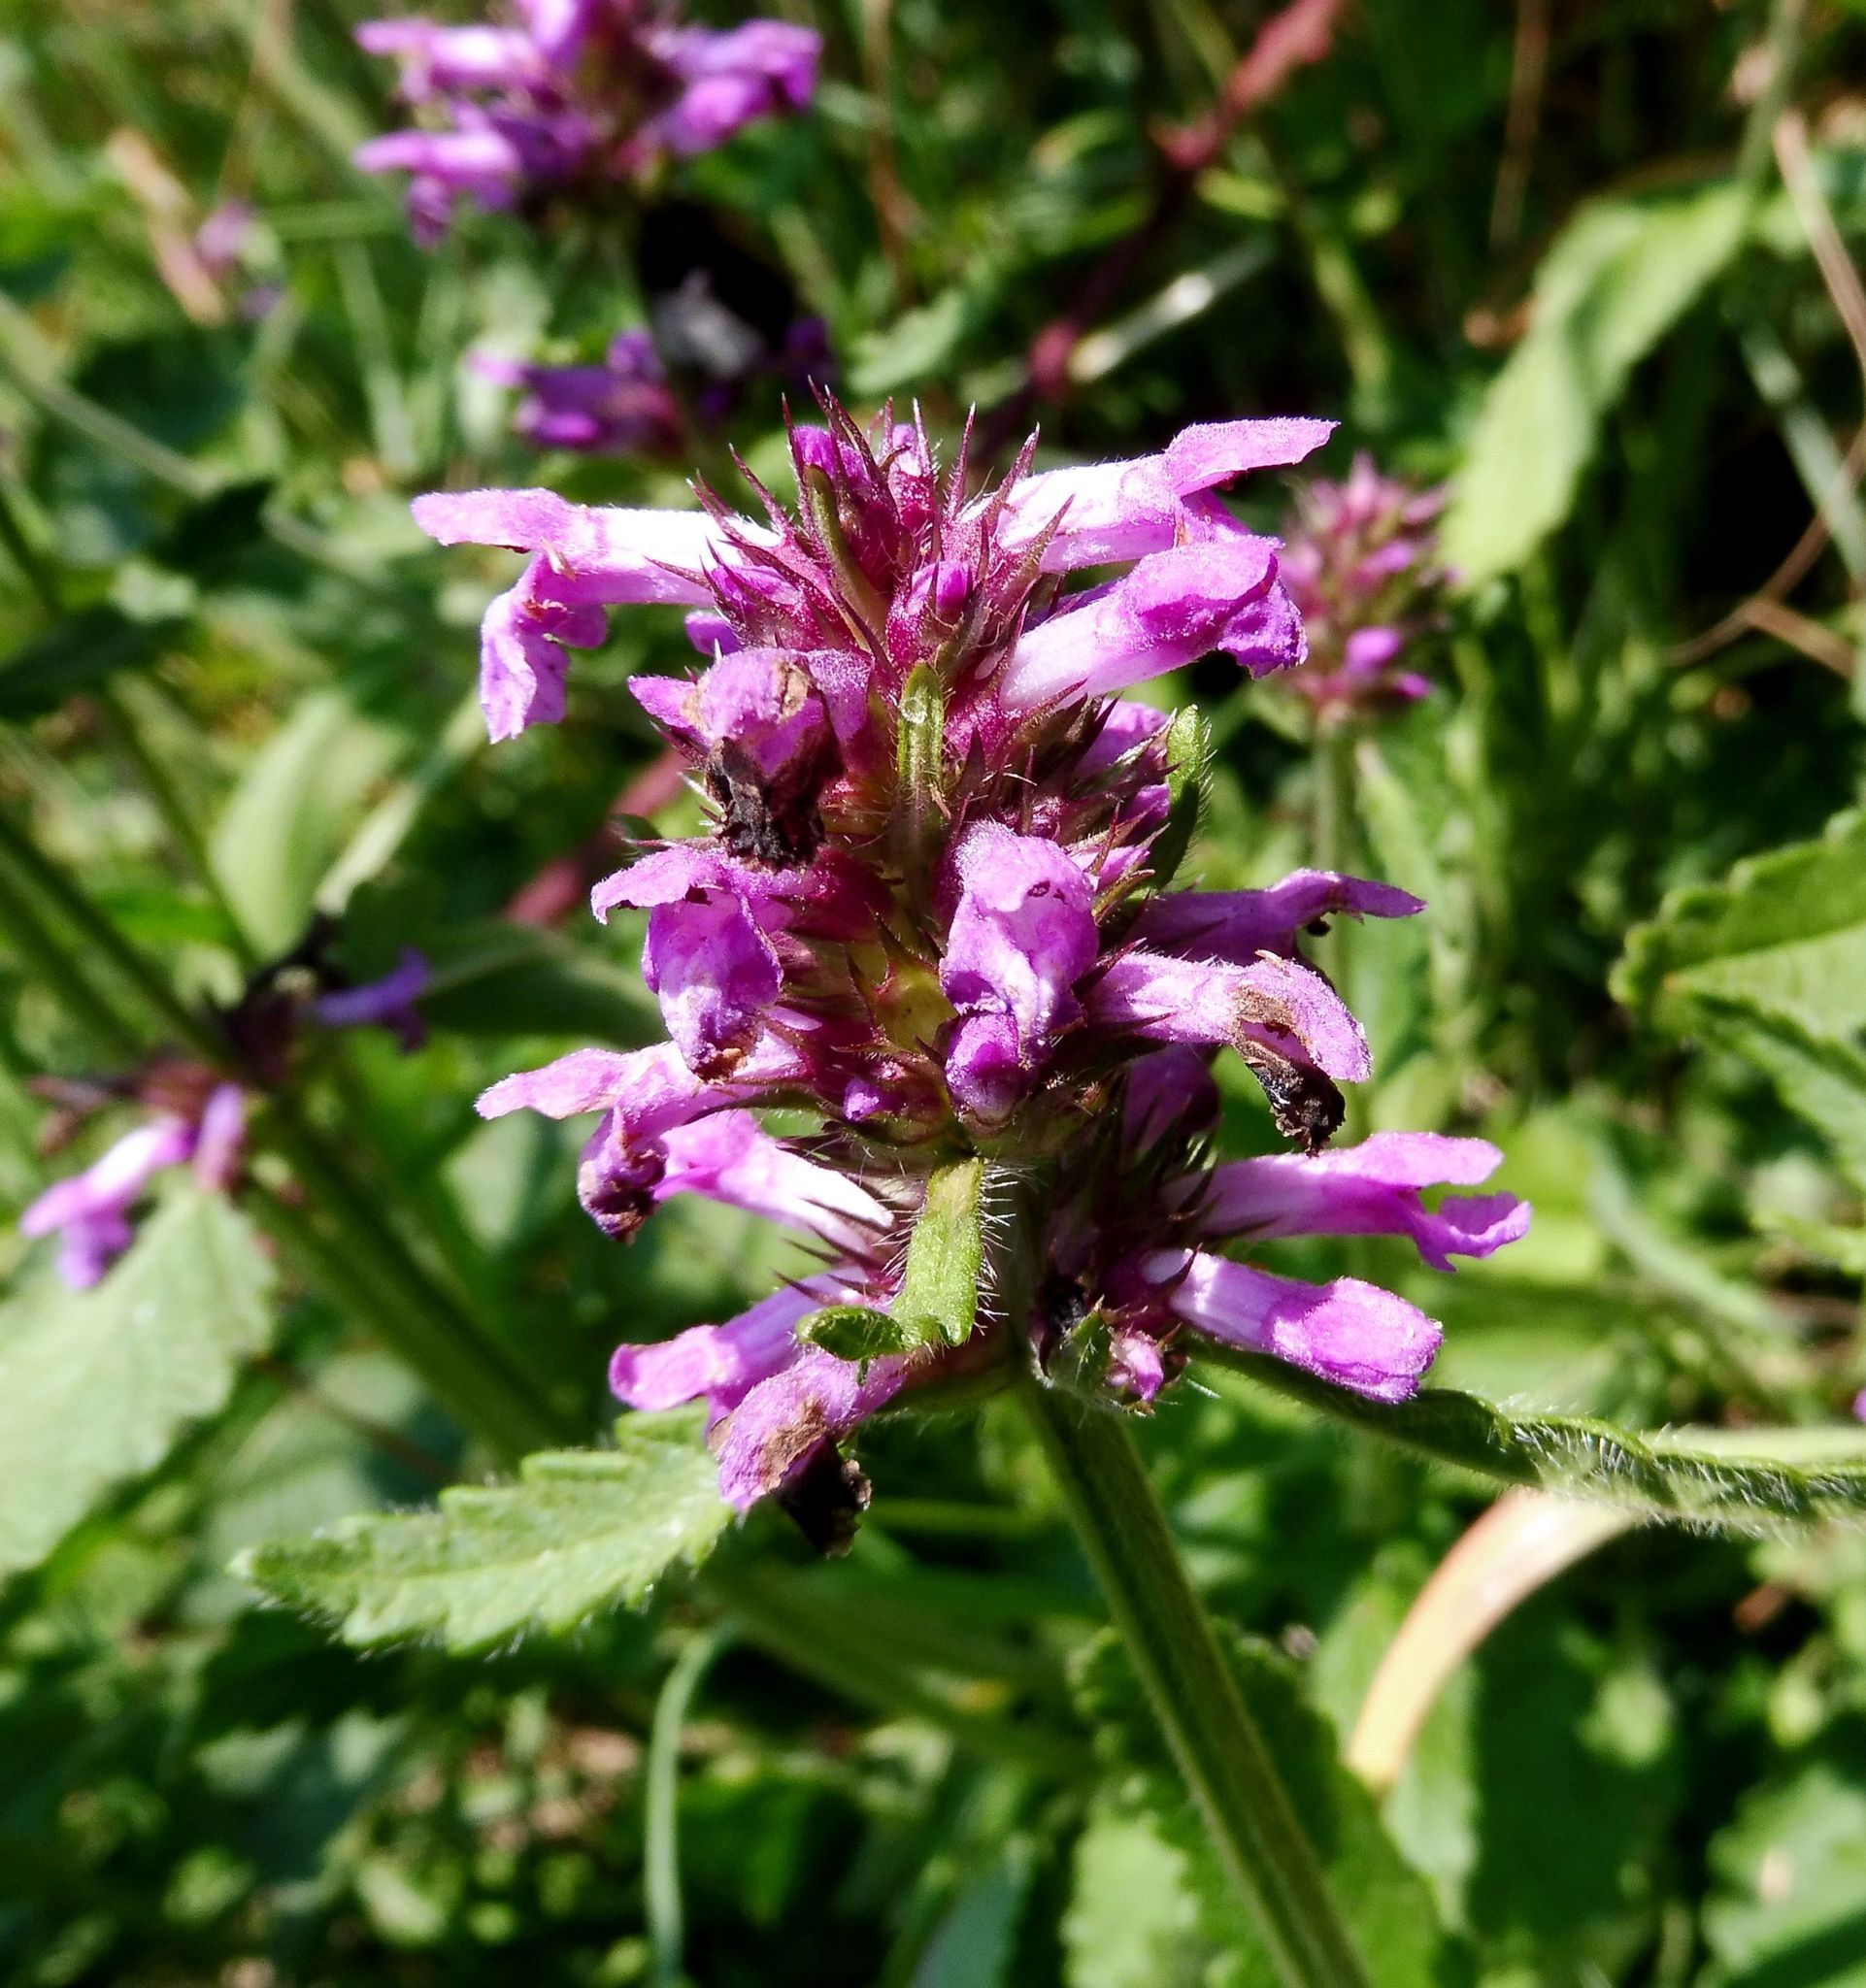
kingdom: Plantae
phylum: Tracheophyta
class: Magnoliopsida
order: Lamiales
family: Lamiaceae
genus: Betonica
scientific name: Betonica officinalis
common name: Bishop's-wort
